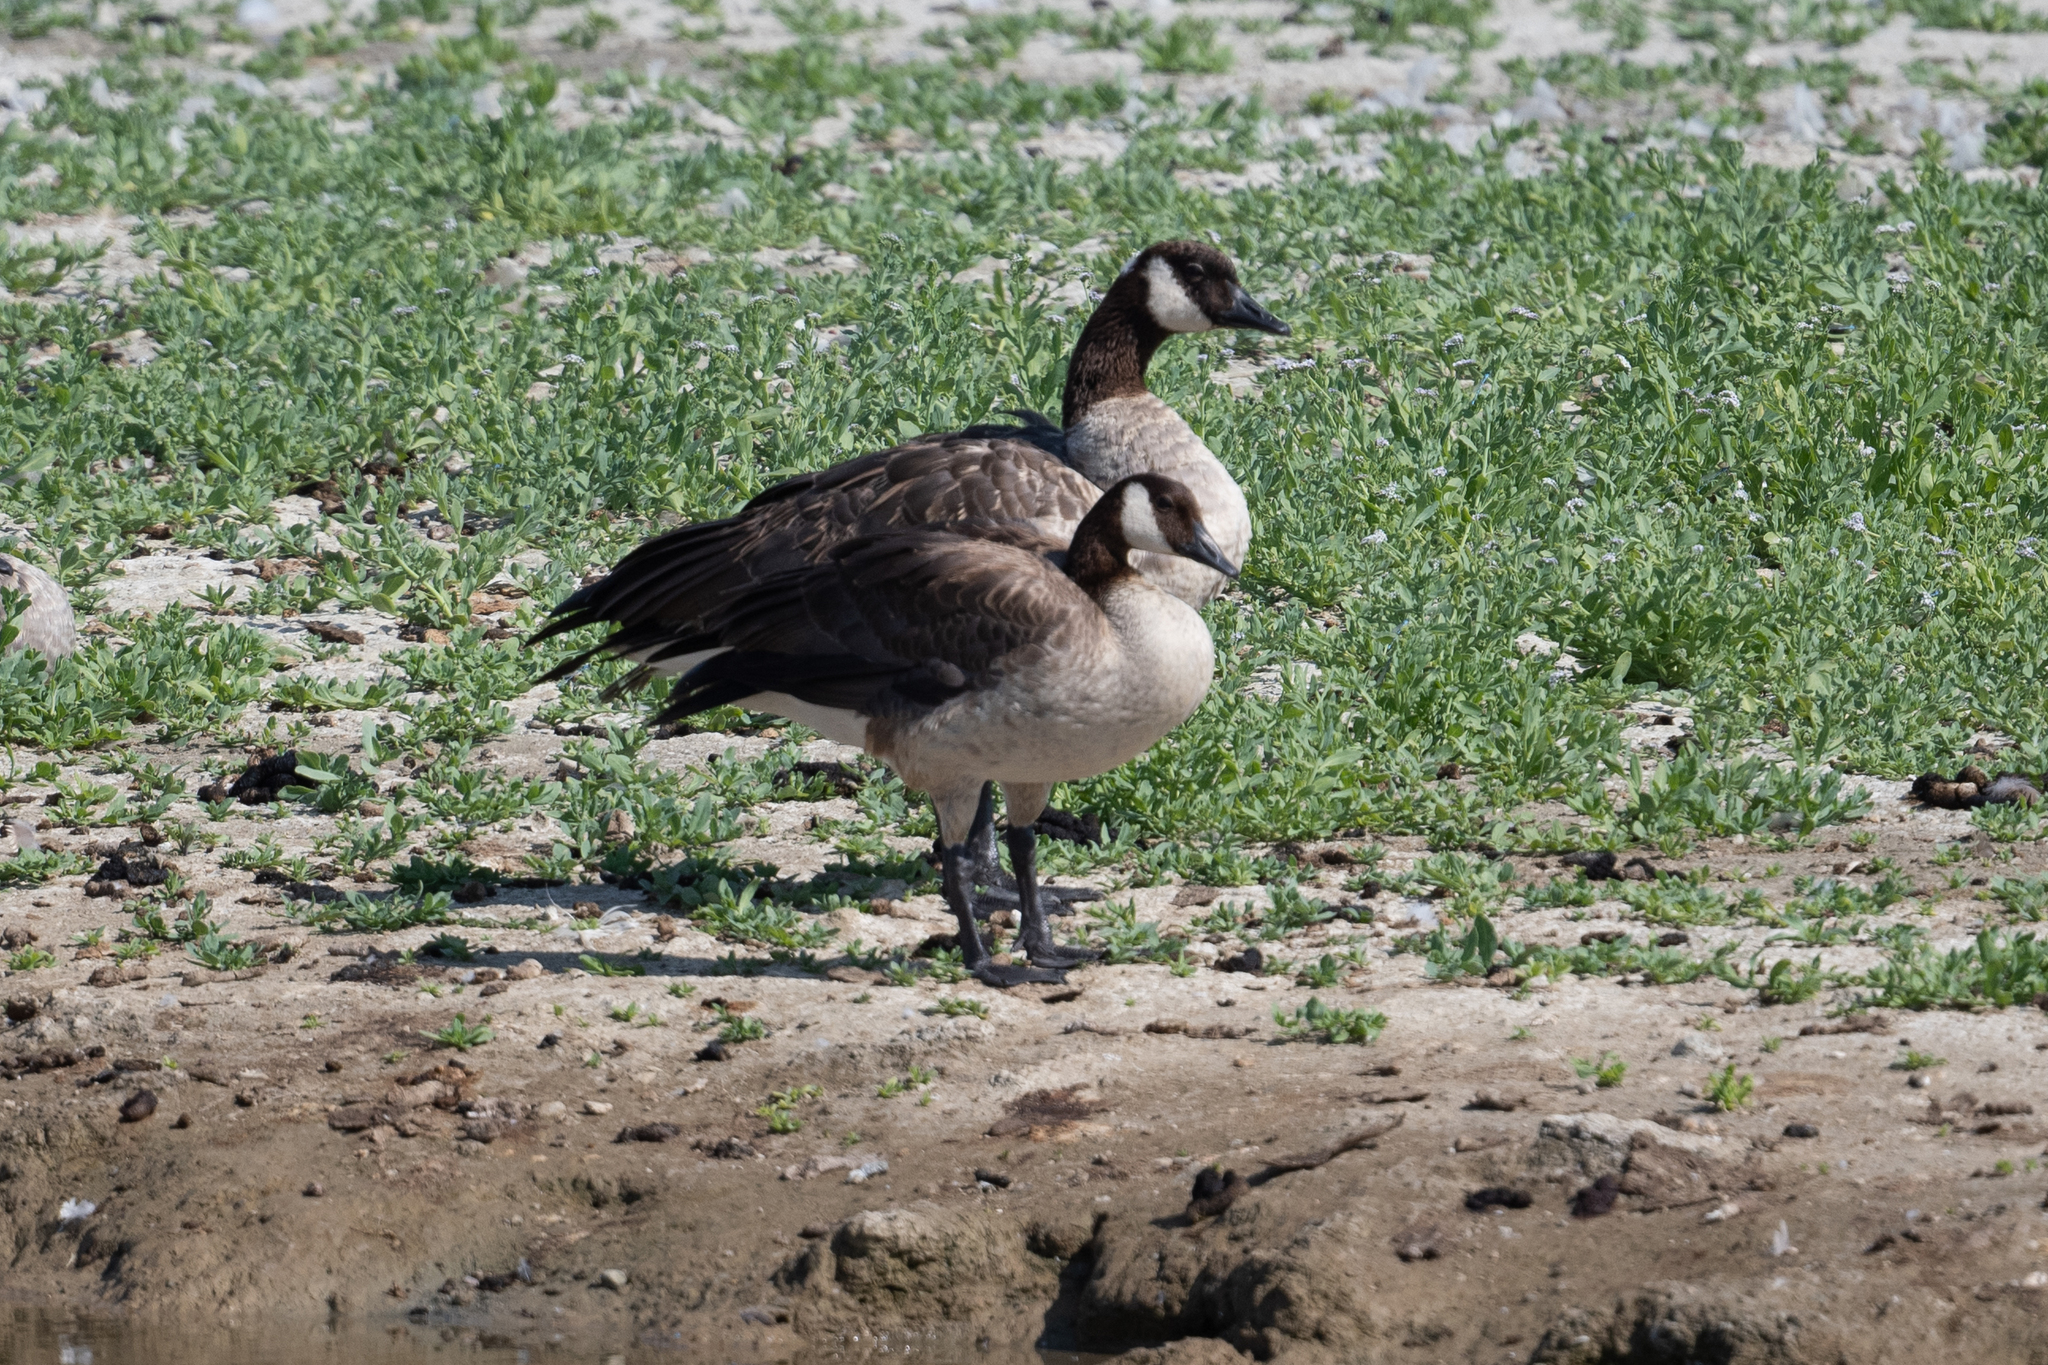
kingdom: Animalia
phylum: Chordata
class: Aves
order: Anseriformes
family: Anatidae
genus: Branta
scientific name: Branta canadensis
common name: Canada goose
